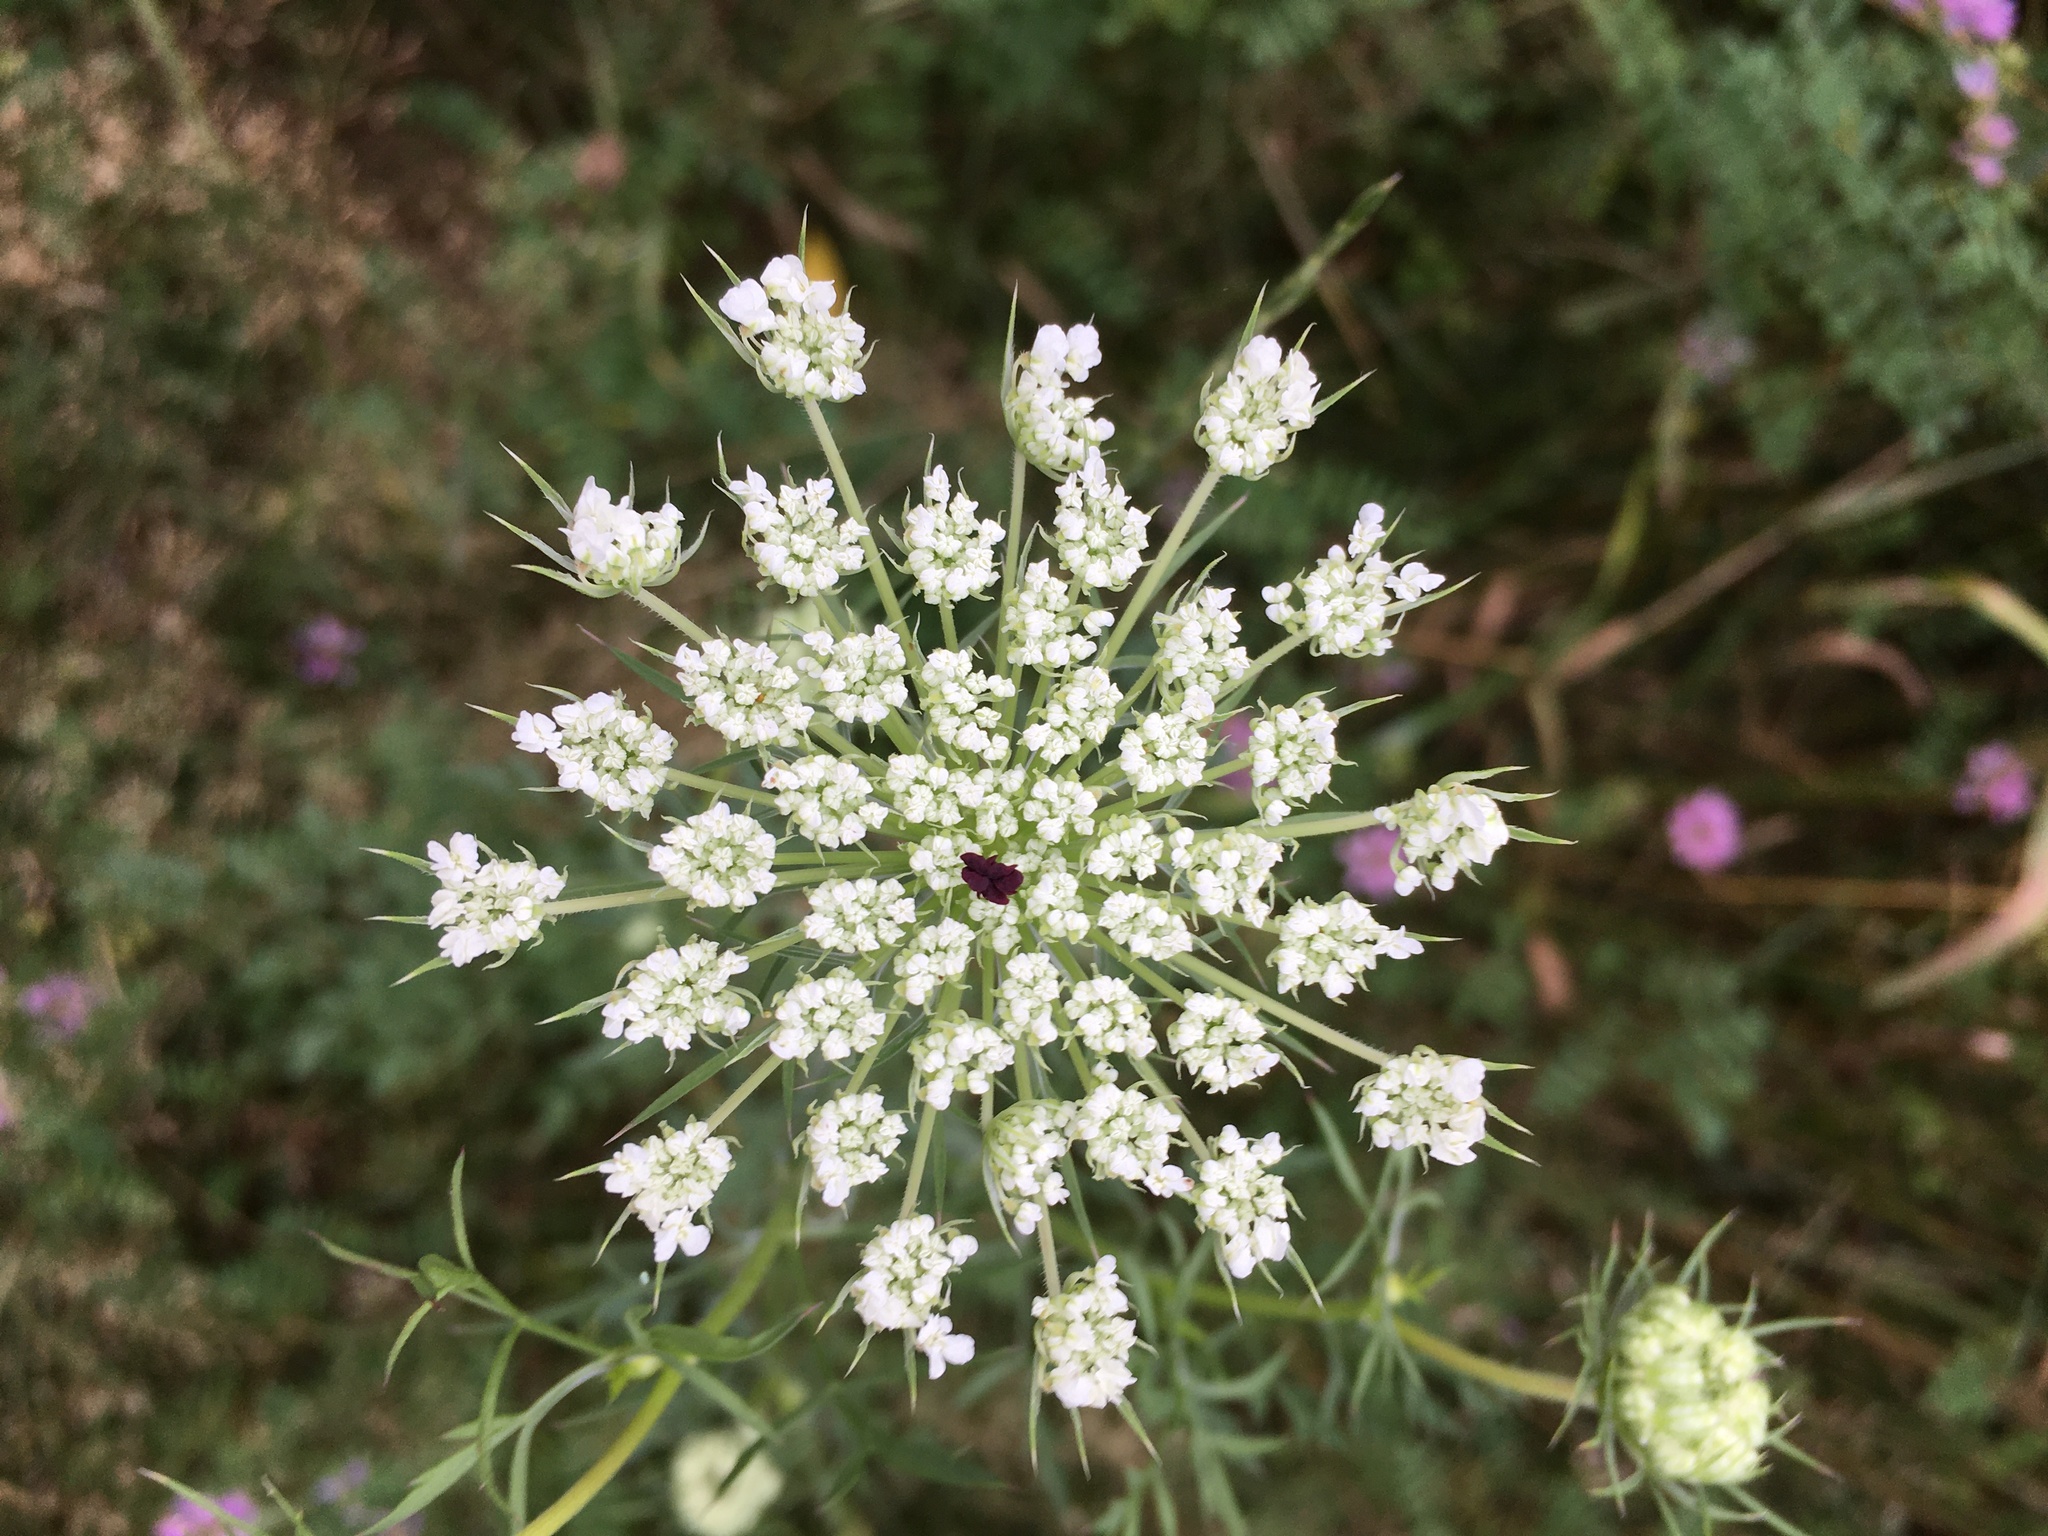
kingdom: Plantae
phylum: Tracheophyta
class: Magnoliopsida
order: Apiales
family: Apiaceae
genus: Daucus
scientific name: Daucus carota
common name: Wild carrot
